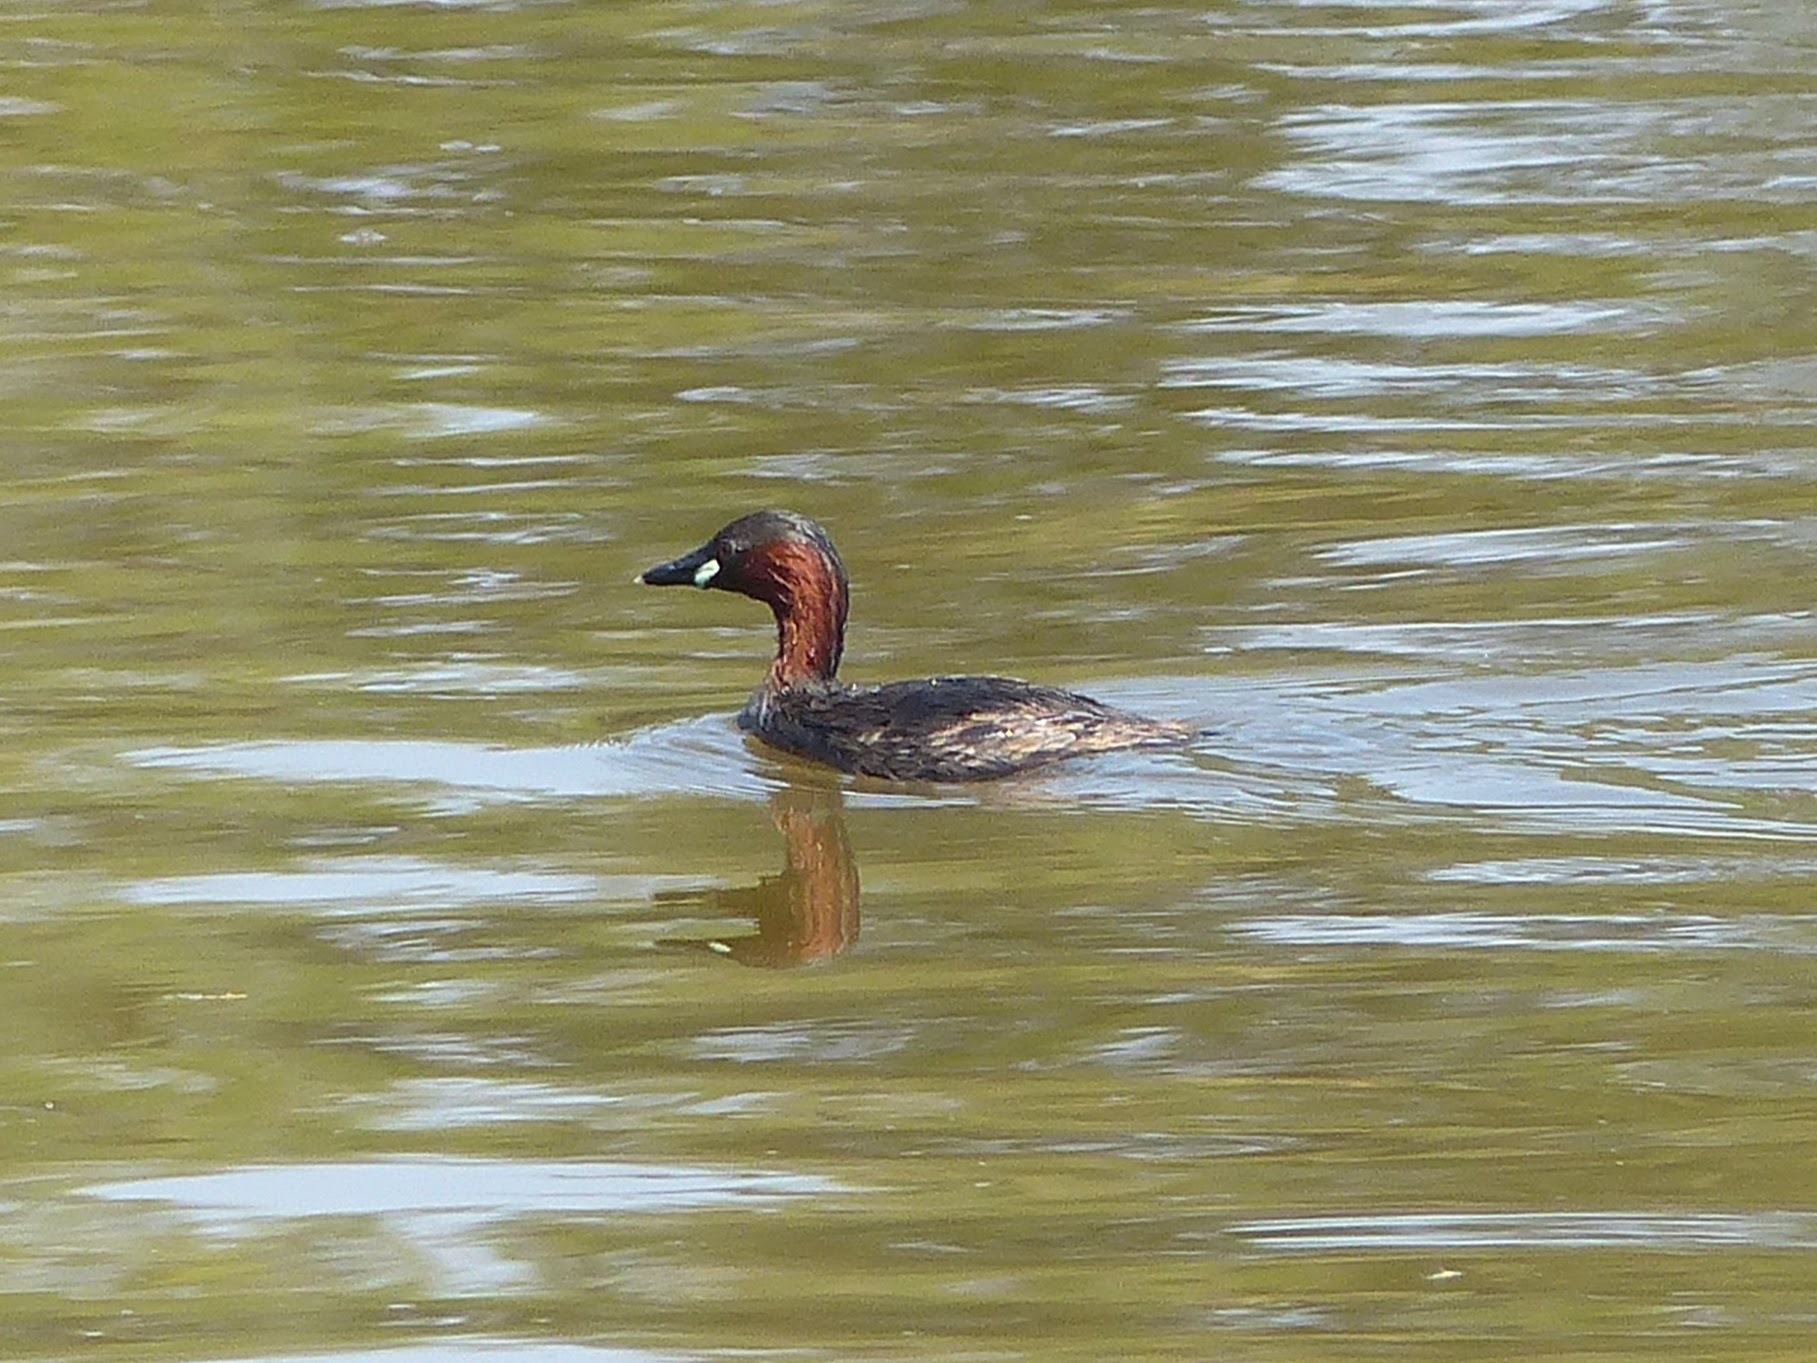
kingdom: Animalia
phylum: Chordata
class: Aves
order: Podicipediformes
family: Podicipedidae
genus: Tachybaptus
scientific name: Tachybaptus ruficollis
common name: Little grebe
